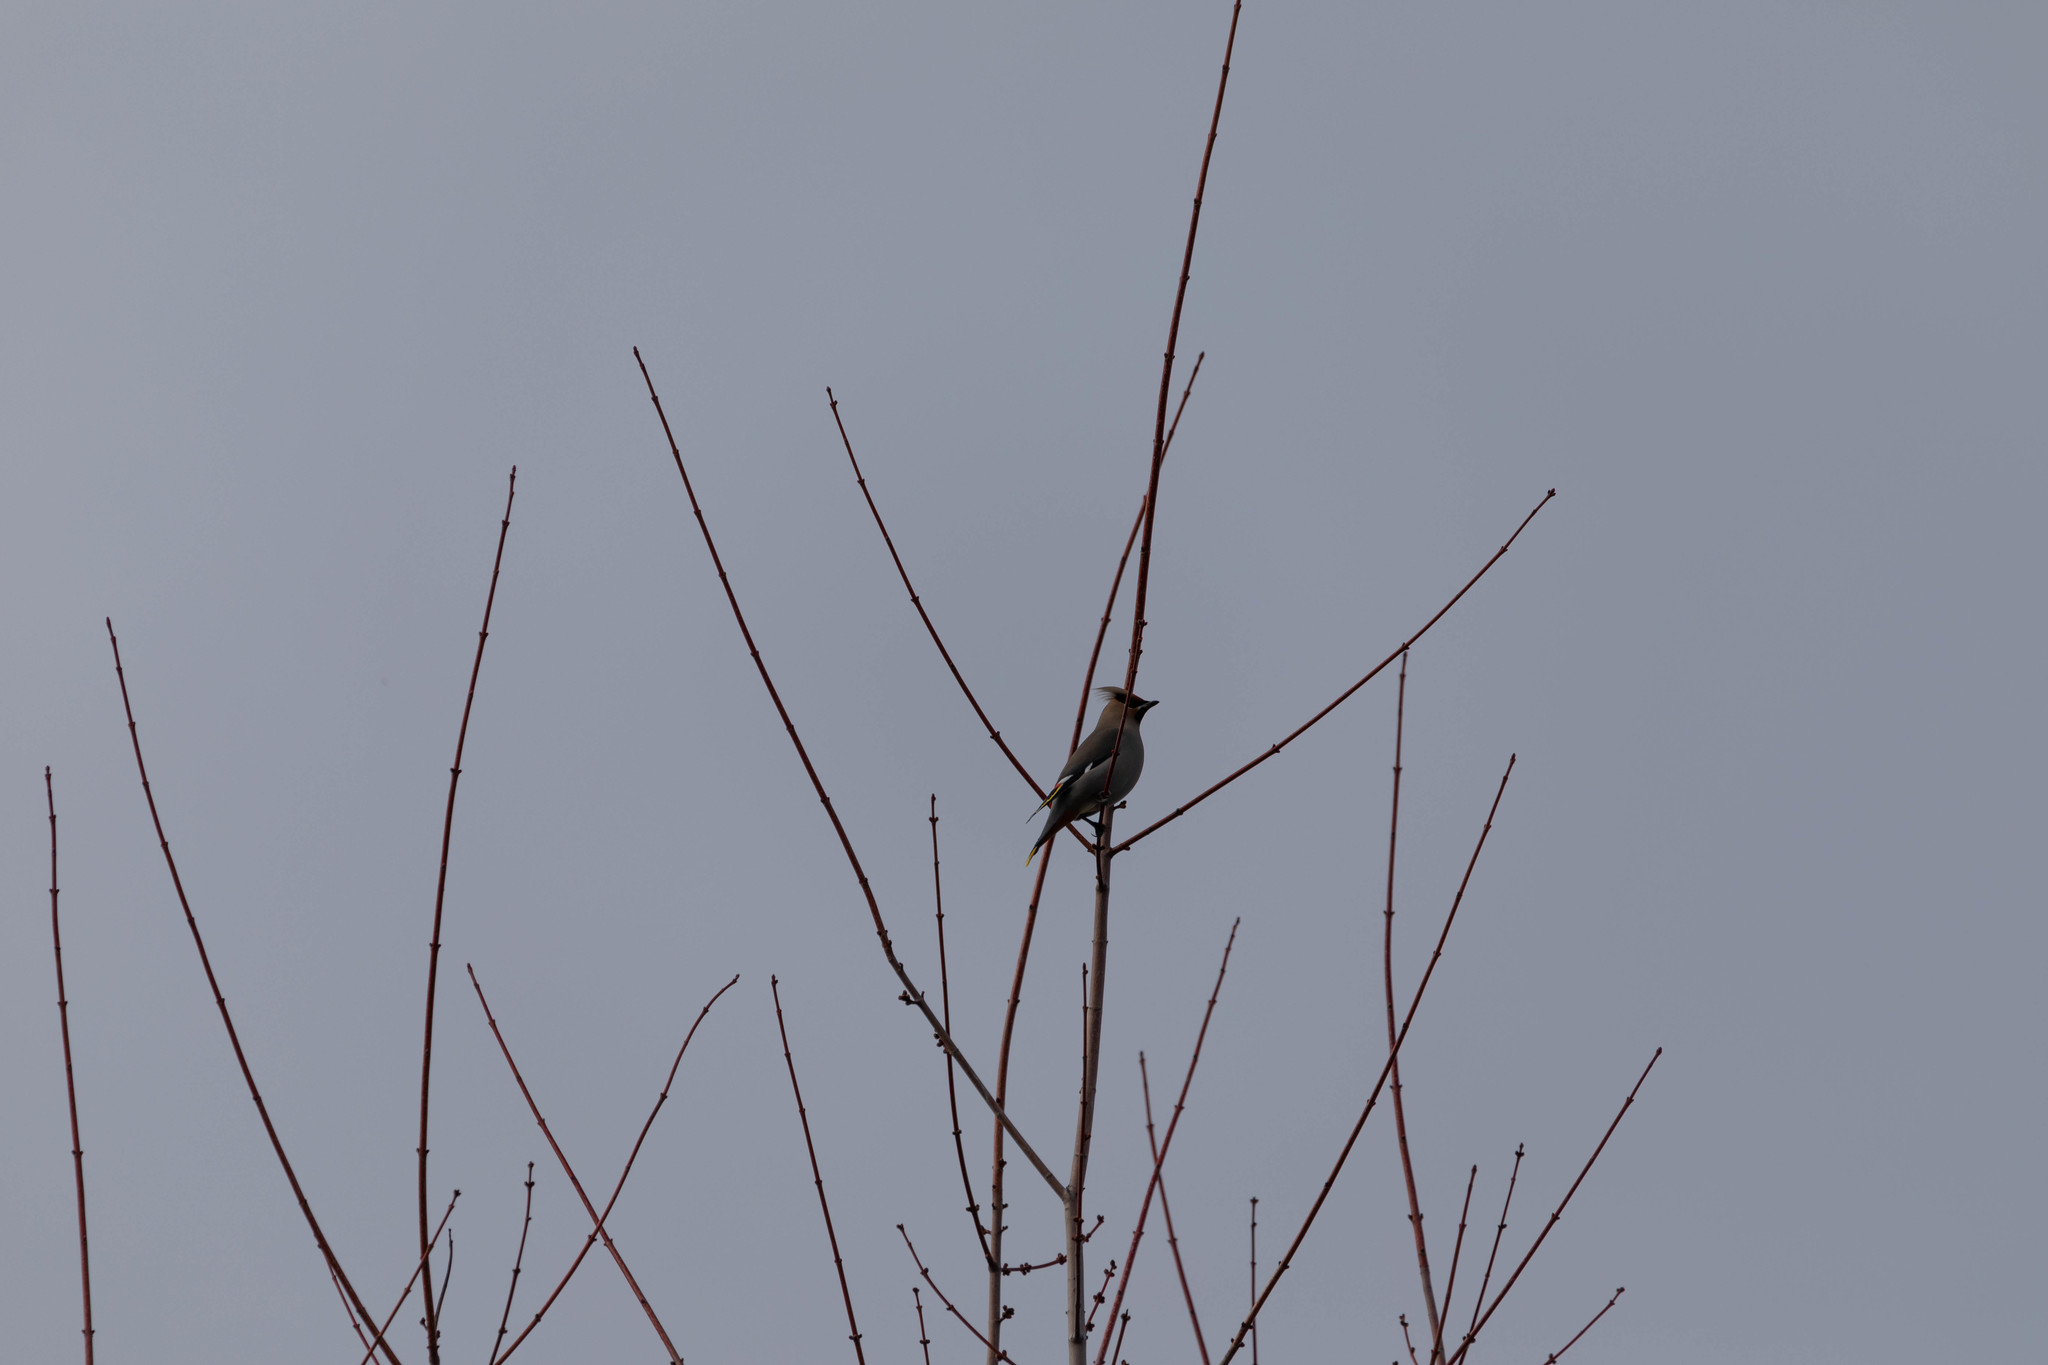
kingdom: Animalia
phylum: Chordata
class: Aves
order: Passeriformes
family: Bombycillidae
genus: Bombycilla
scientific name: Bombycilla garrulus
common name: Bohemian waxwing
